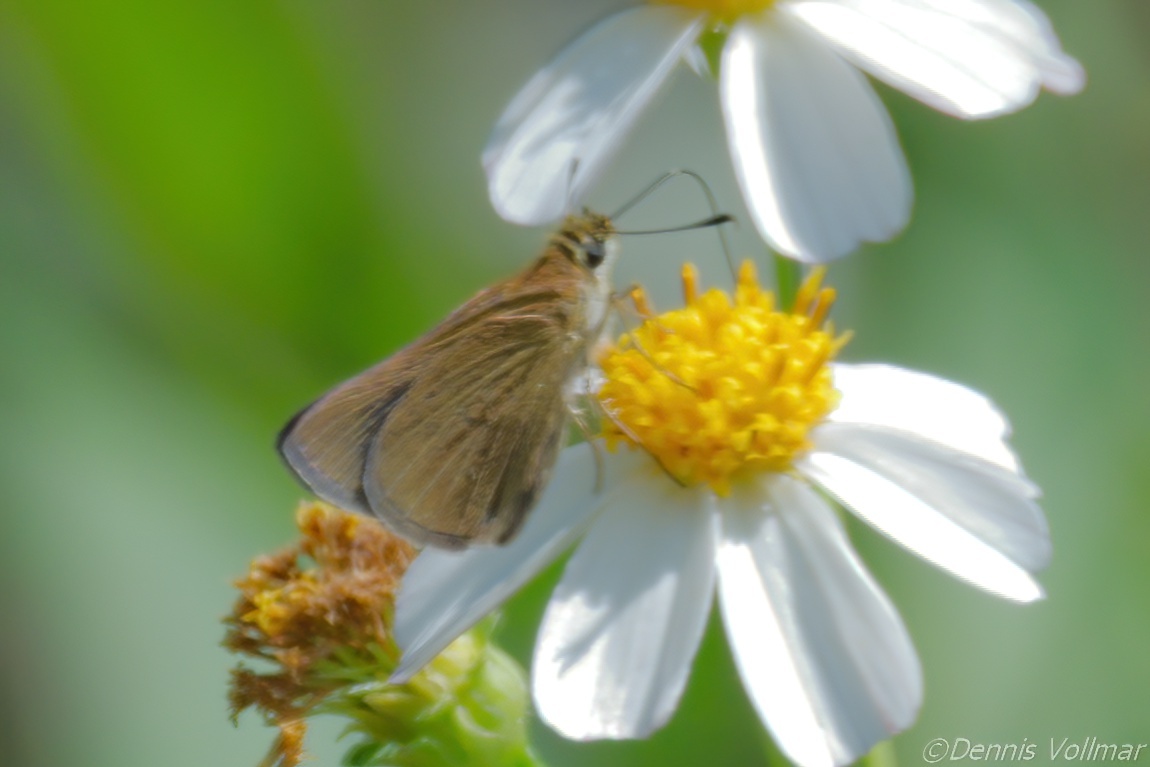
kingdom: Animalia
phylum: Arthropoda
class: Insecta
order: Lepidoptera
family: Hesperiidae
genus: Nastra
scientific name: Nastra lherminier
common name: Swarthy skipper
